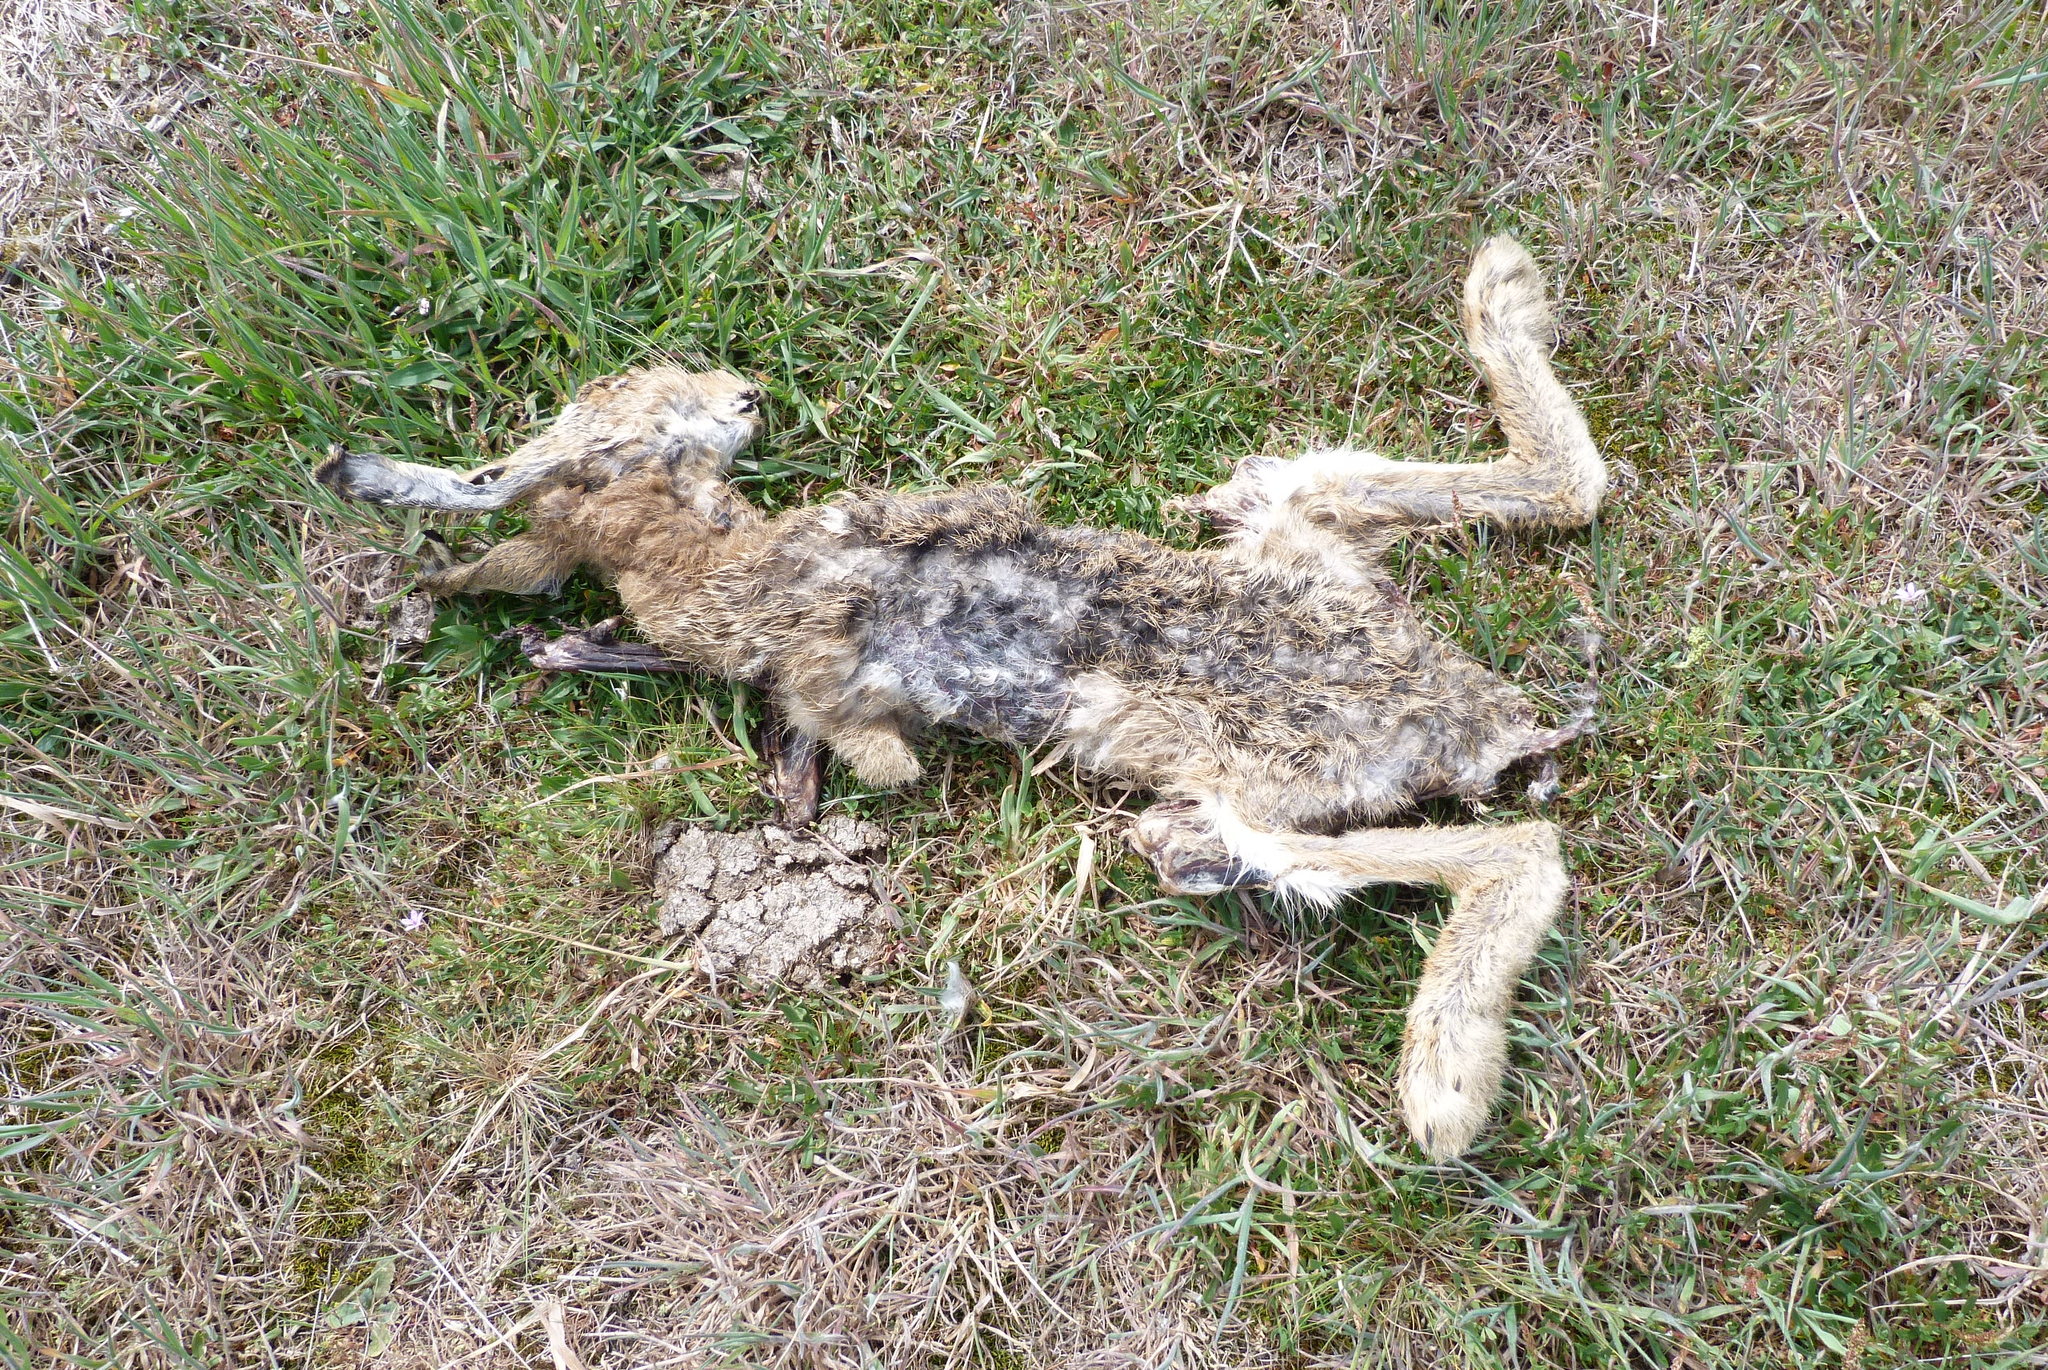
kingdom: Animalia
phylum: Chordata
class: Mammalia
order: Lagomorpha
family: Leporidae
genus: Lepus
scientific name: Lepus europaeus
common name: European hare
